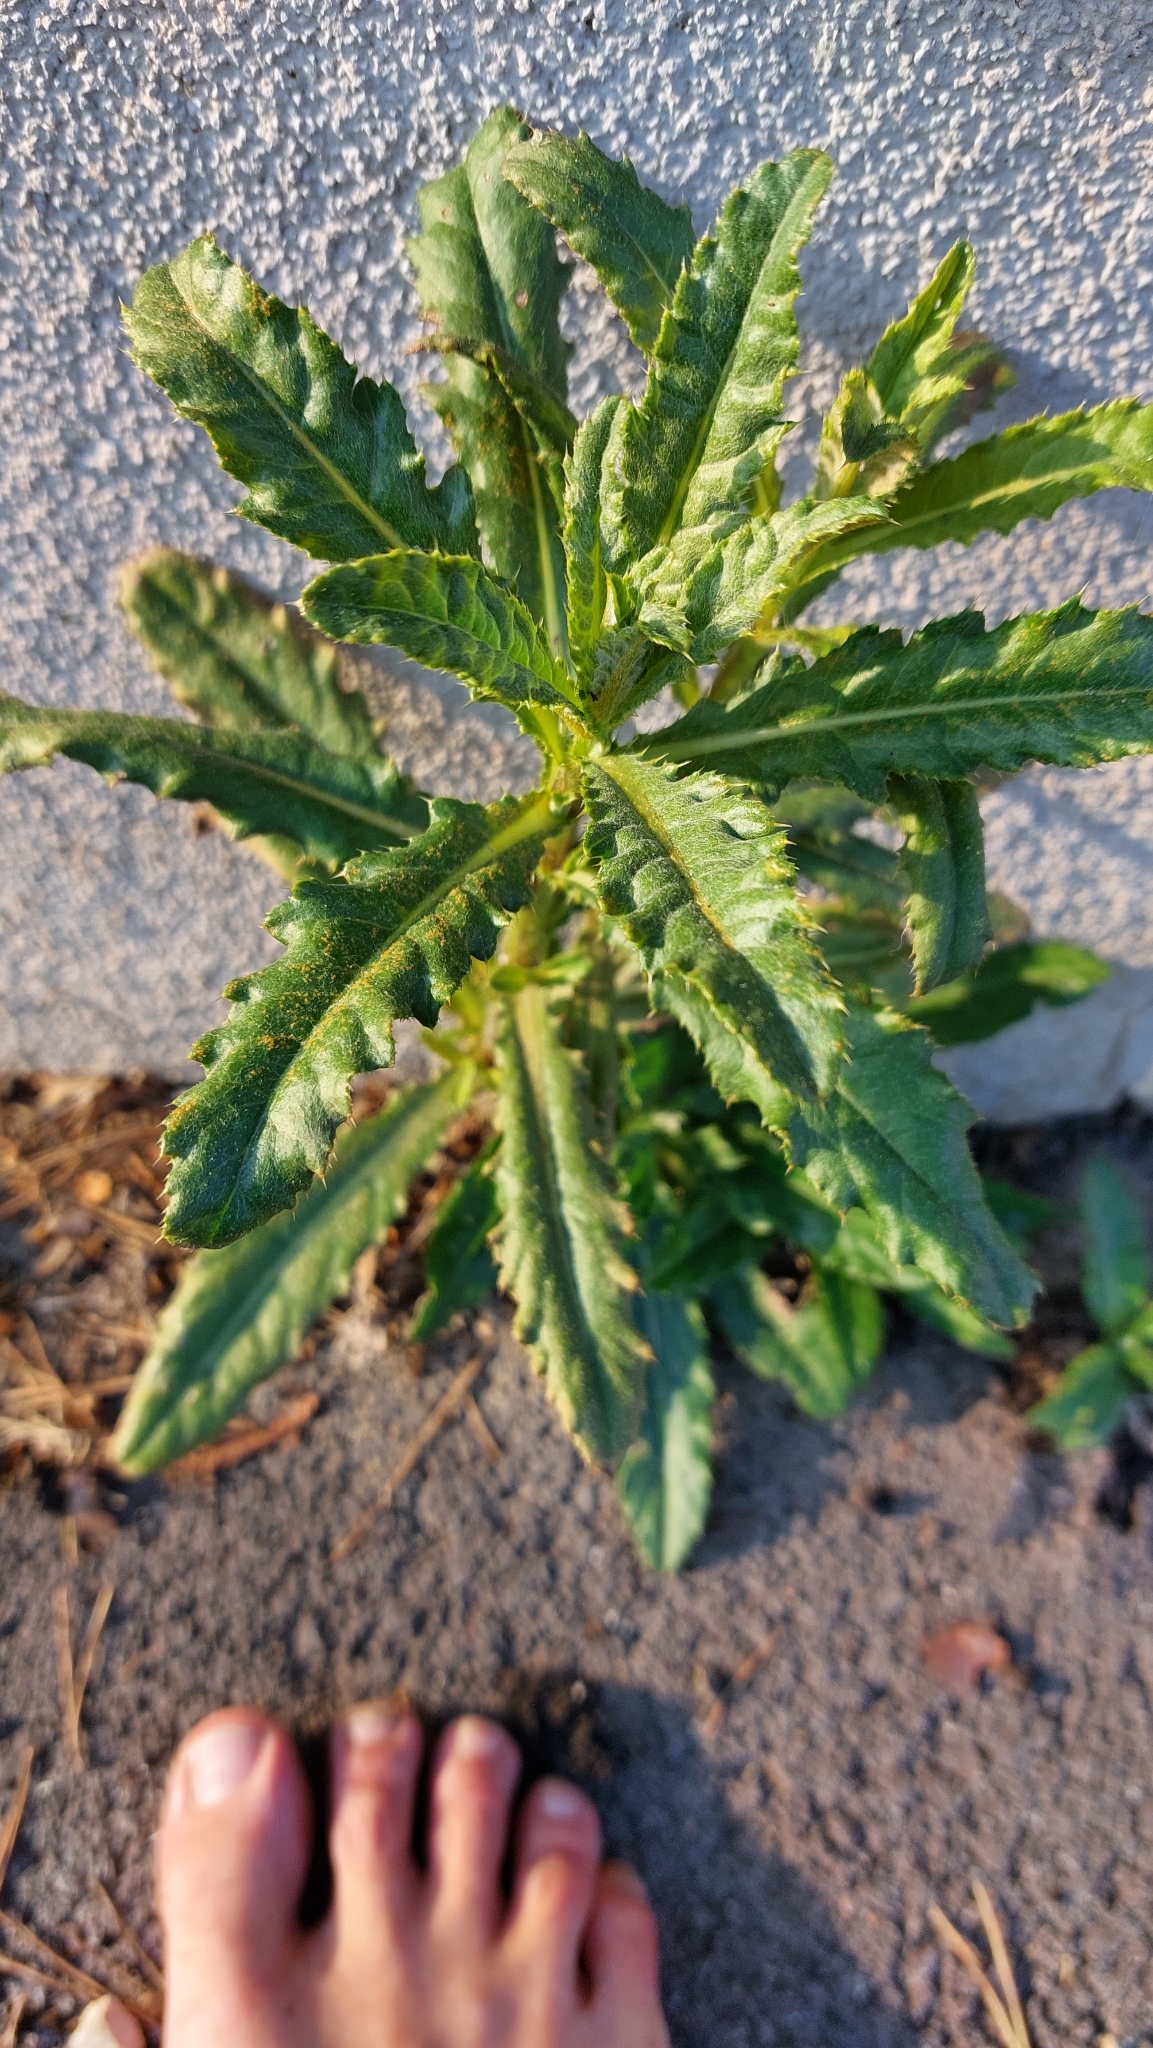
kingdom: Plantae
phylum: Tracheophyta
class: Magnoliopsida
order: Asterales
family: Asteraceae
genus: Cirsium
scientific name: Cirsium arvense
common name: Creeping thistle
